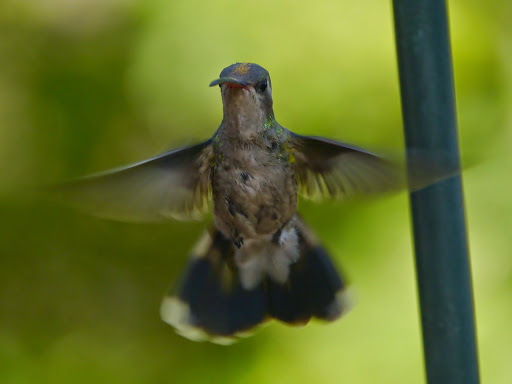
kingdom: Animalia
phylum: Chordata
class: Aves
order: Apodiformes
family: Trochilidae
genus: Cynanthus
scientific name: Cynanthus latirostris
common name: Broad-billed hummingbird
